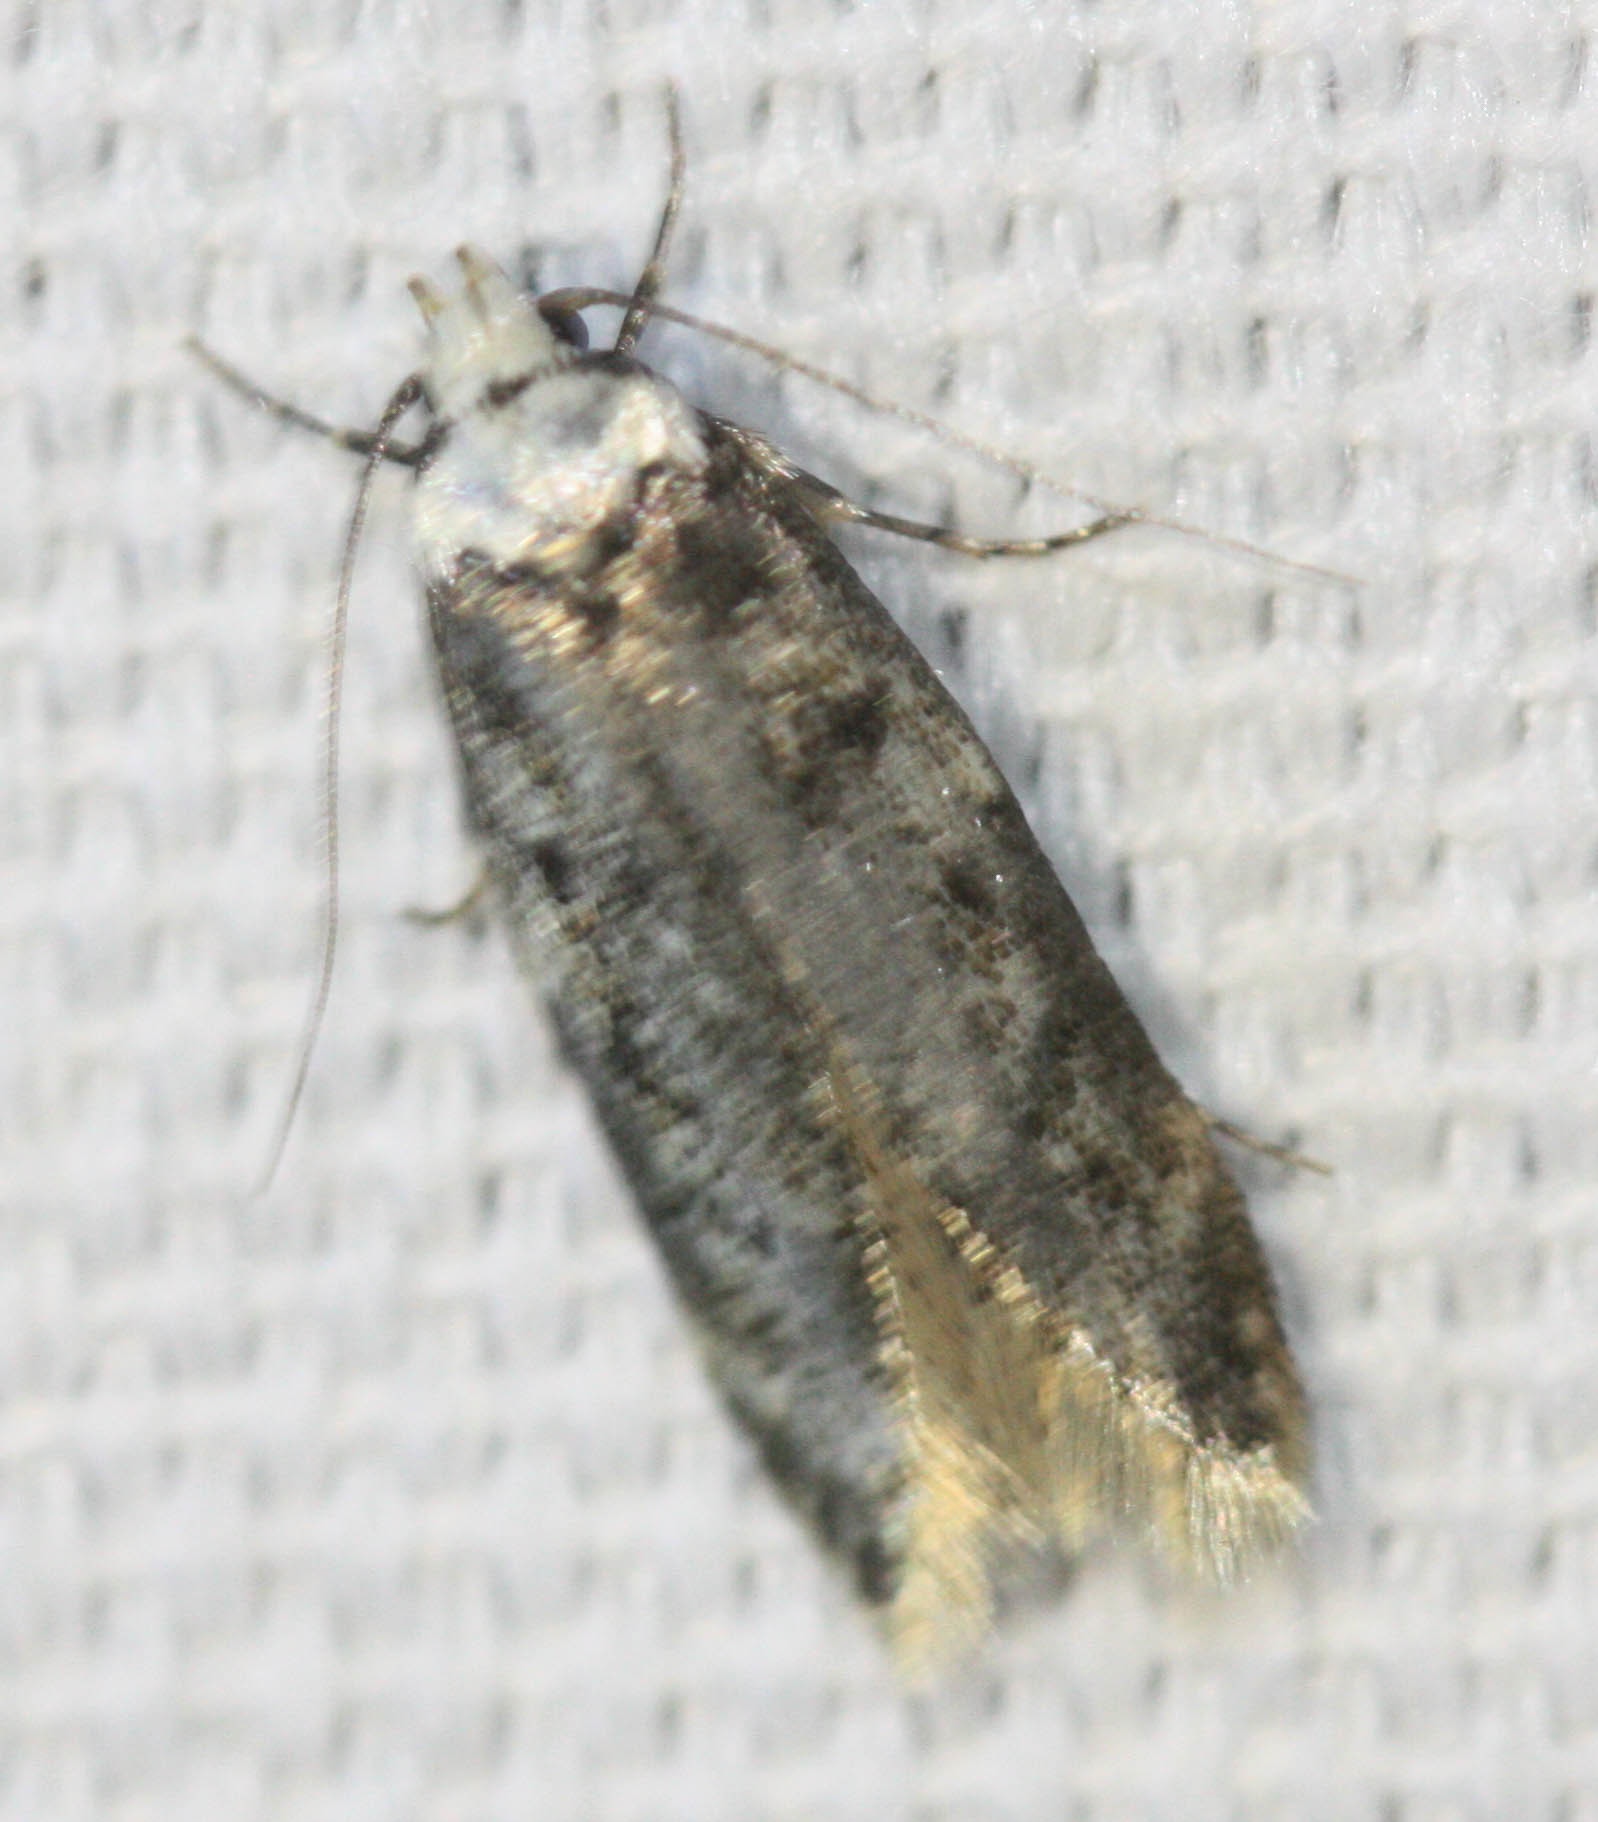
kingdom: Animalia
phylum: Arthropoda
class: Insecta
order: Lepidoptera
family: Oecophoridae
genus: Endrosis
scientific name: Endrosis sarcitrella
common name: White-shouldered house moth
